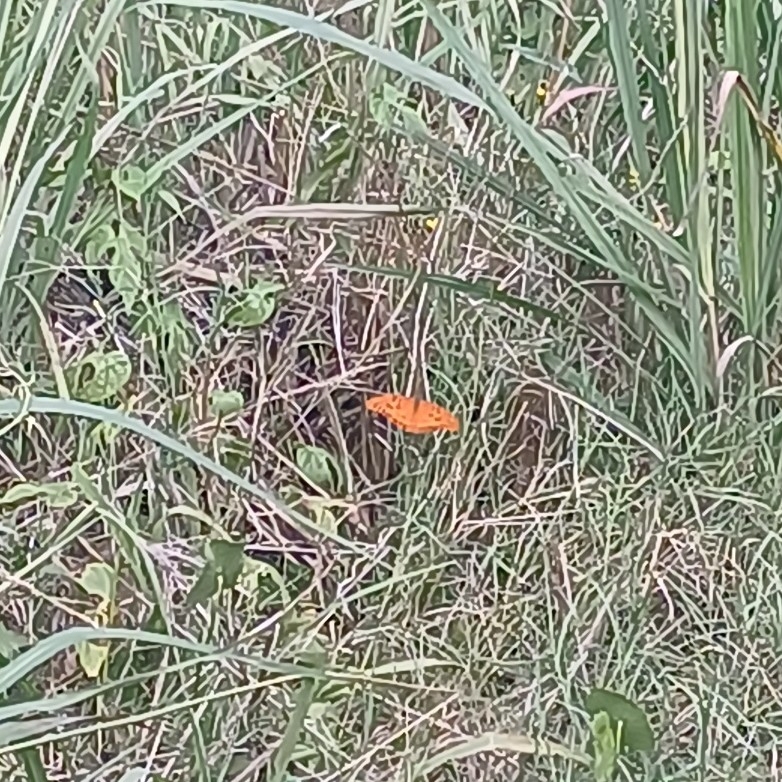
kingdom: Animalia
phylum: Arthropoda
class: Insecta
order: Lepidoptera
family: Nymphalidae
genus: Dione
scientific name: Dione vanillae
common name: Gulf fritillary
